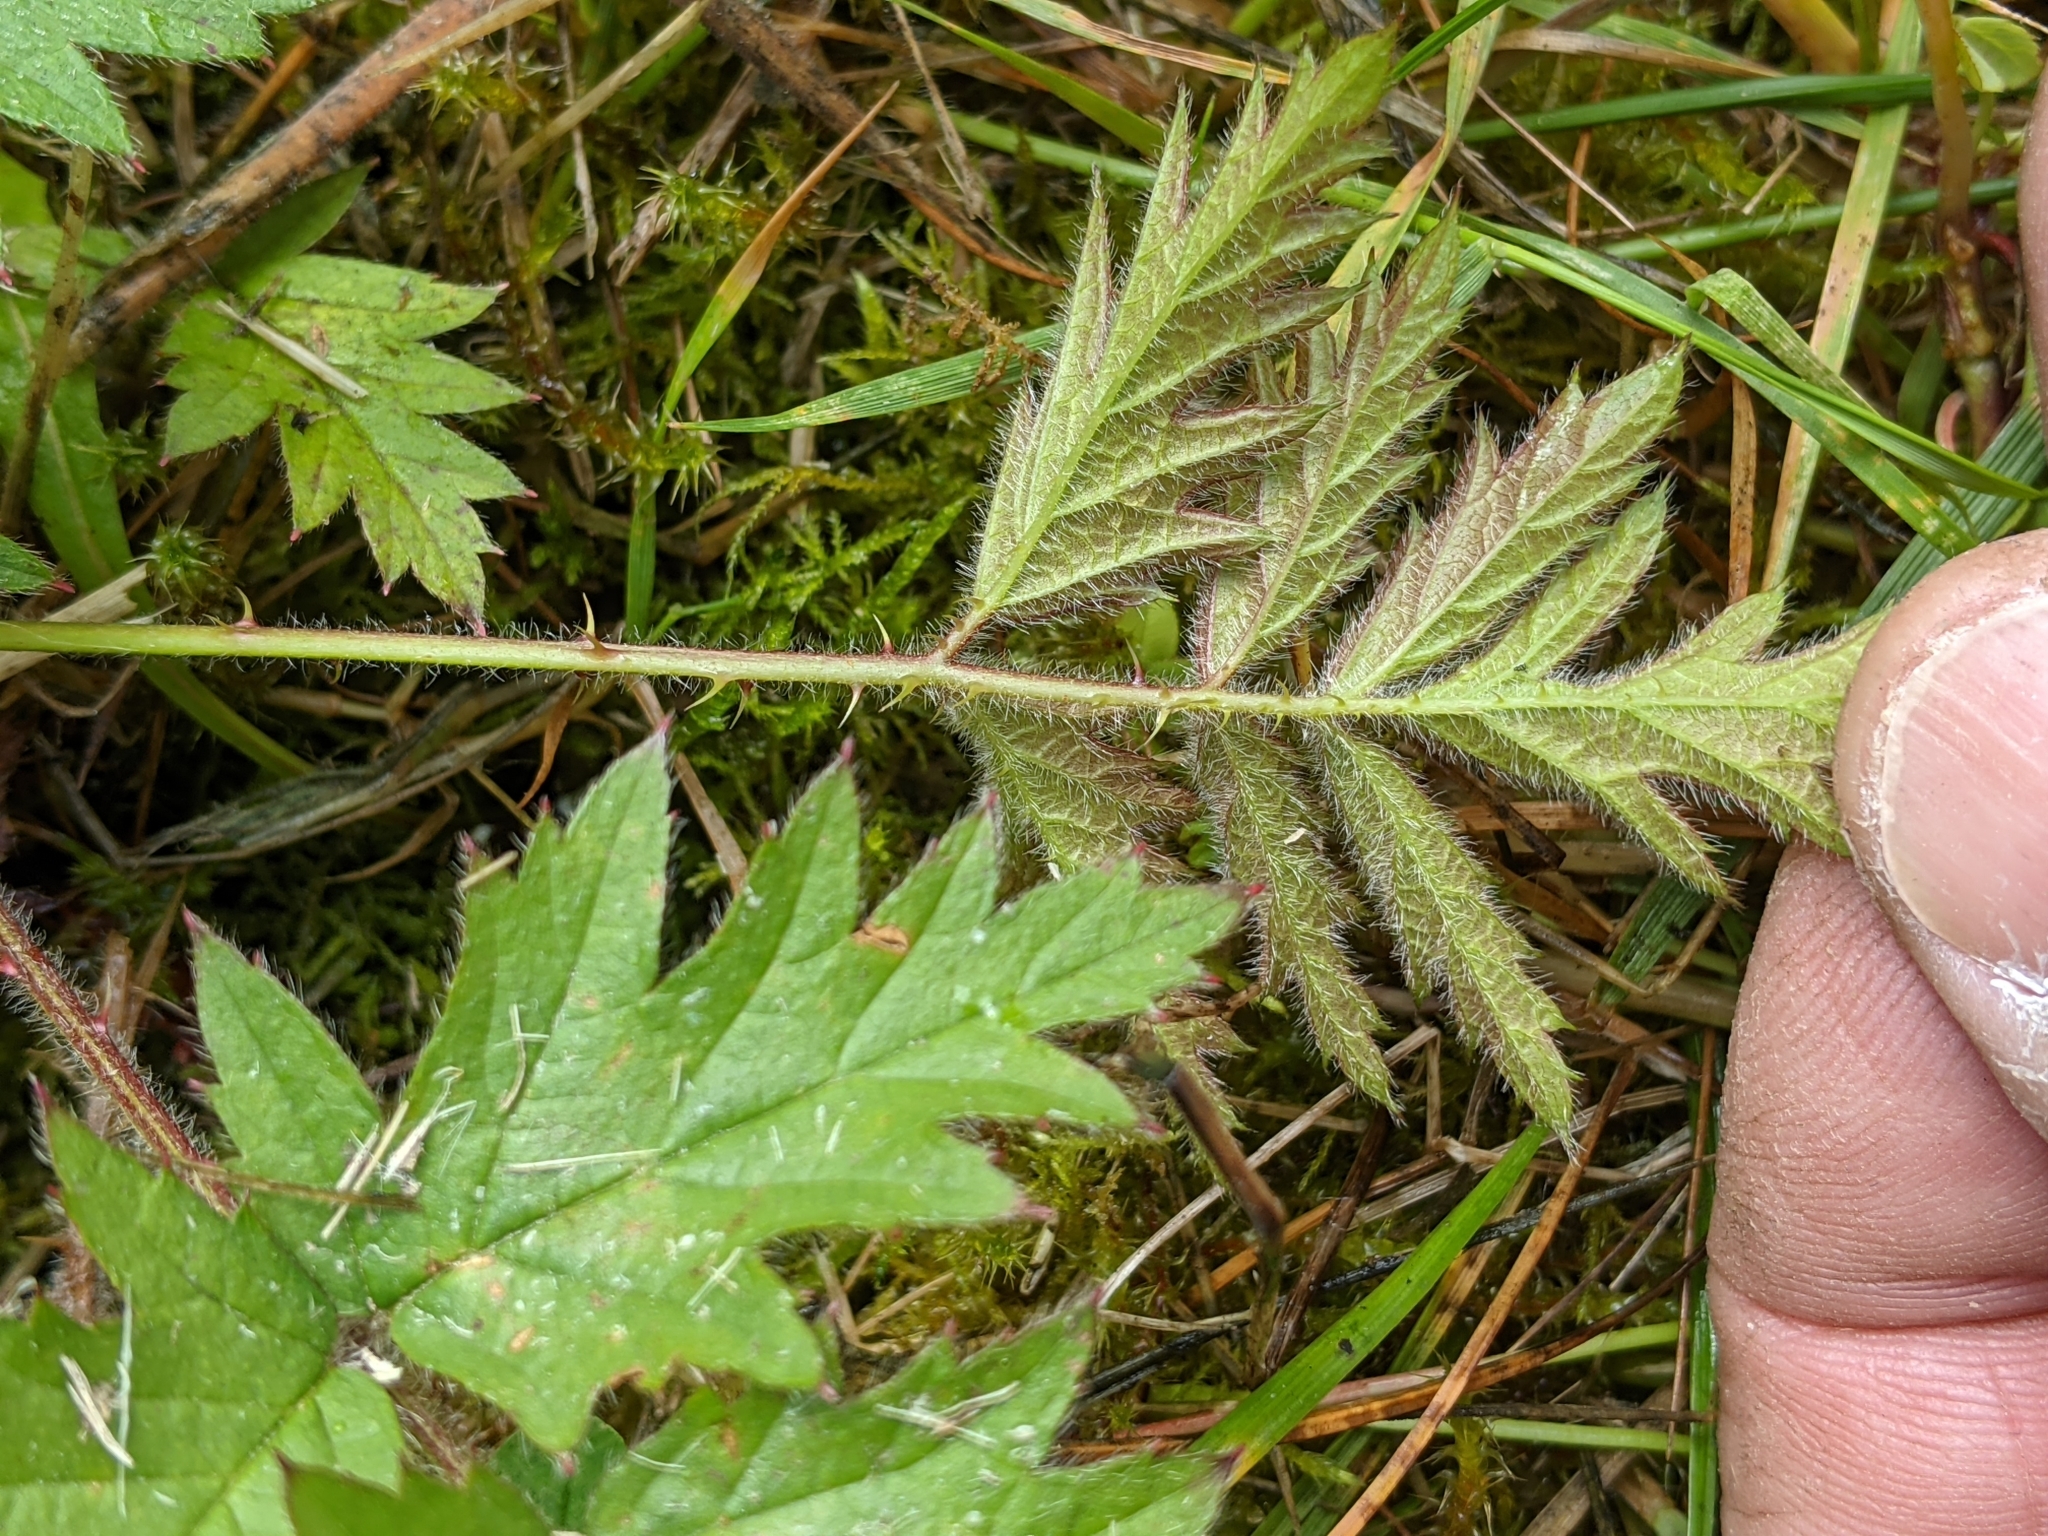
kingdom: Plantae
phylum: Tracheophyta
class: Magnoliopsida
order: Rosales
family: Rosaceae
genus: Rubus
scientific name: Rubus laciniatus
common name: Evergreen blackberry
